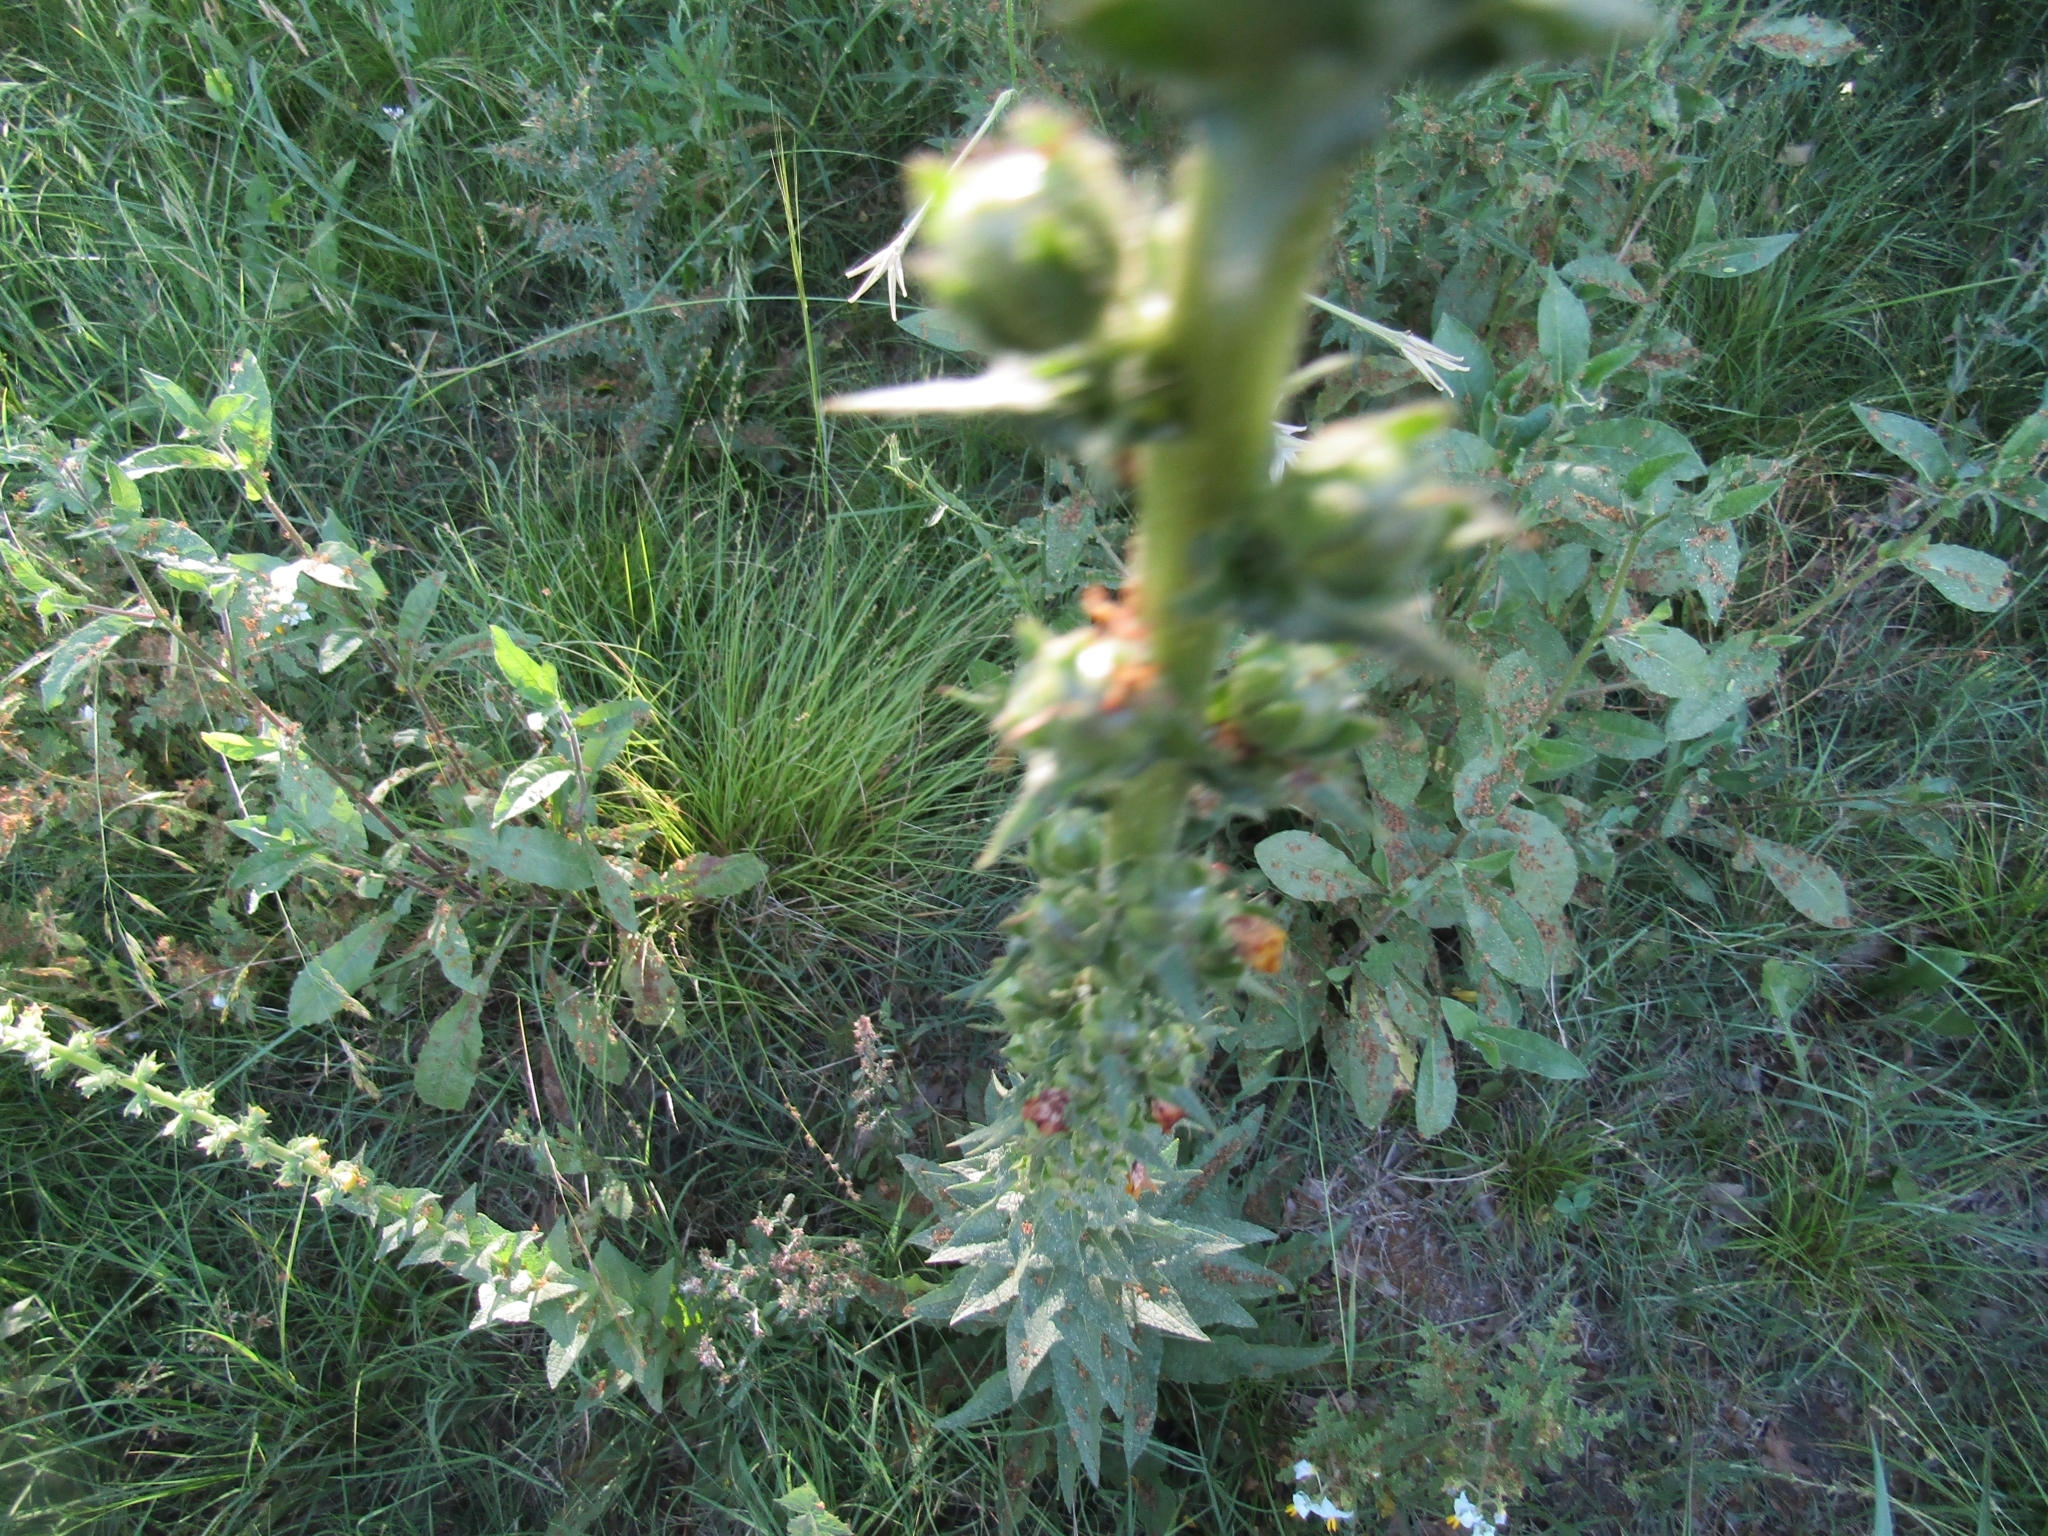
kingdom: Plantae
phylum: Tracheophyta
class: Magnoliopsida
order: Lamiales
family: Scrophulariaceae
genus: Verbascum
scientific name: Verbascum virgatum
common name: Twiggy mullein
